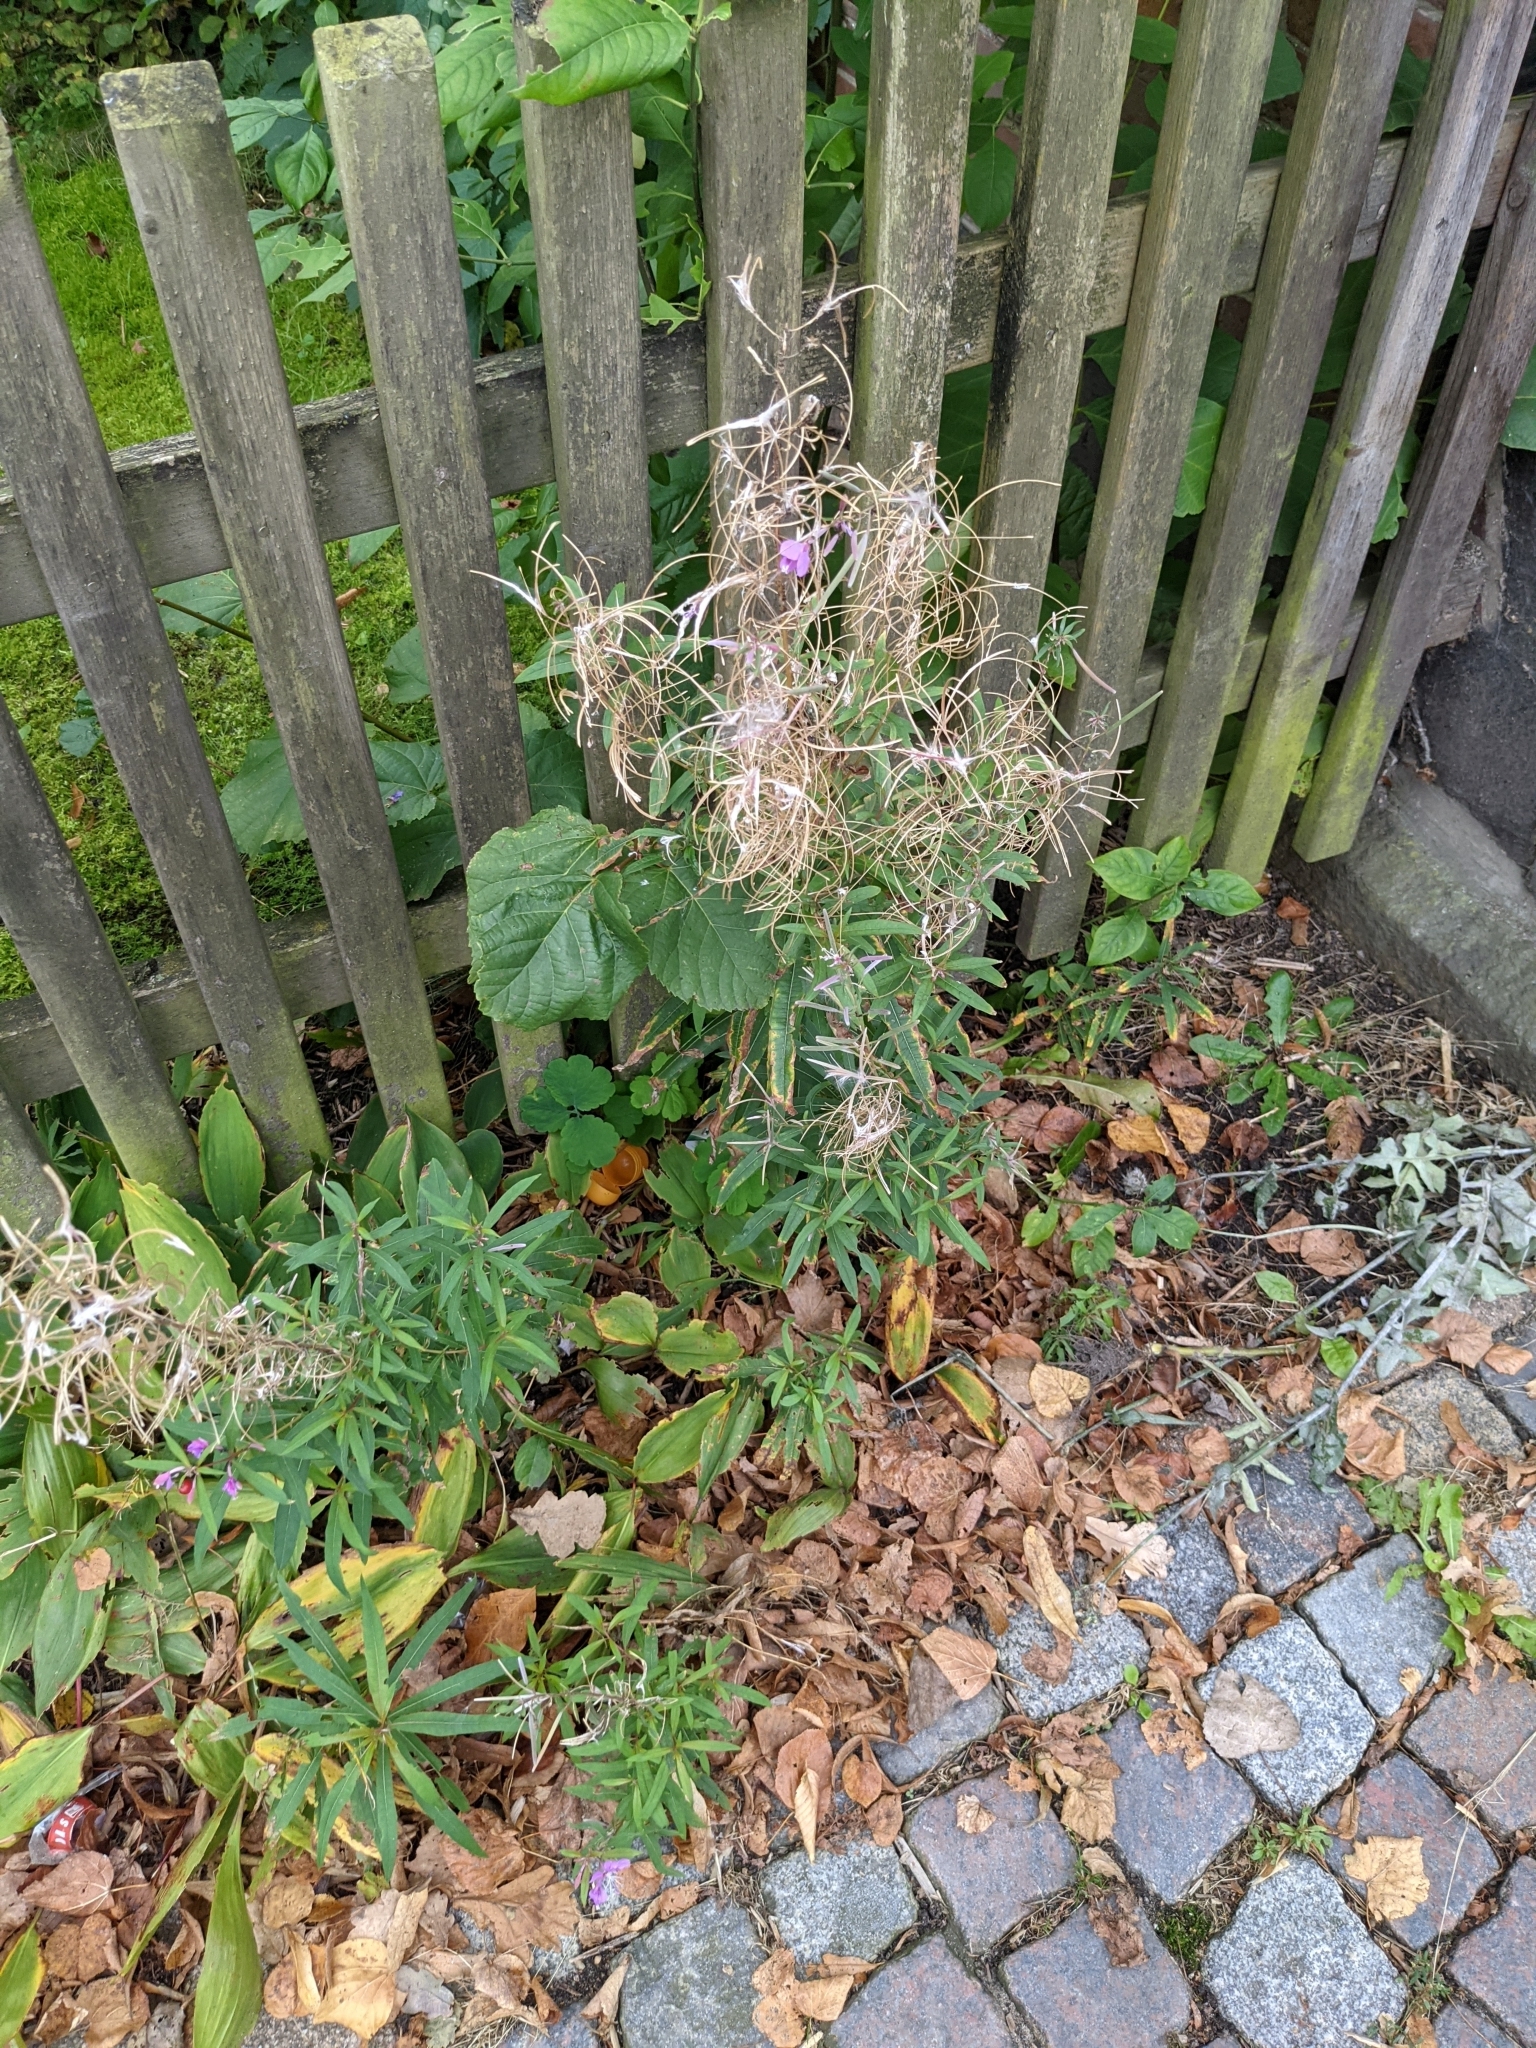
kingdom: Plantae
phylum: Tracheophyta
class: Magnoliopsida
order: Myrtales
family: Onagraceae
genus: Chamaenerion
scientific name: Chamaenerion angustifolium
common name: Fireweed
